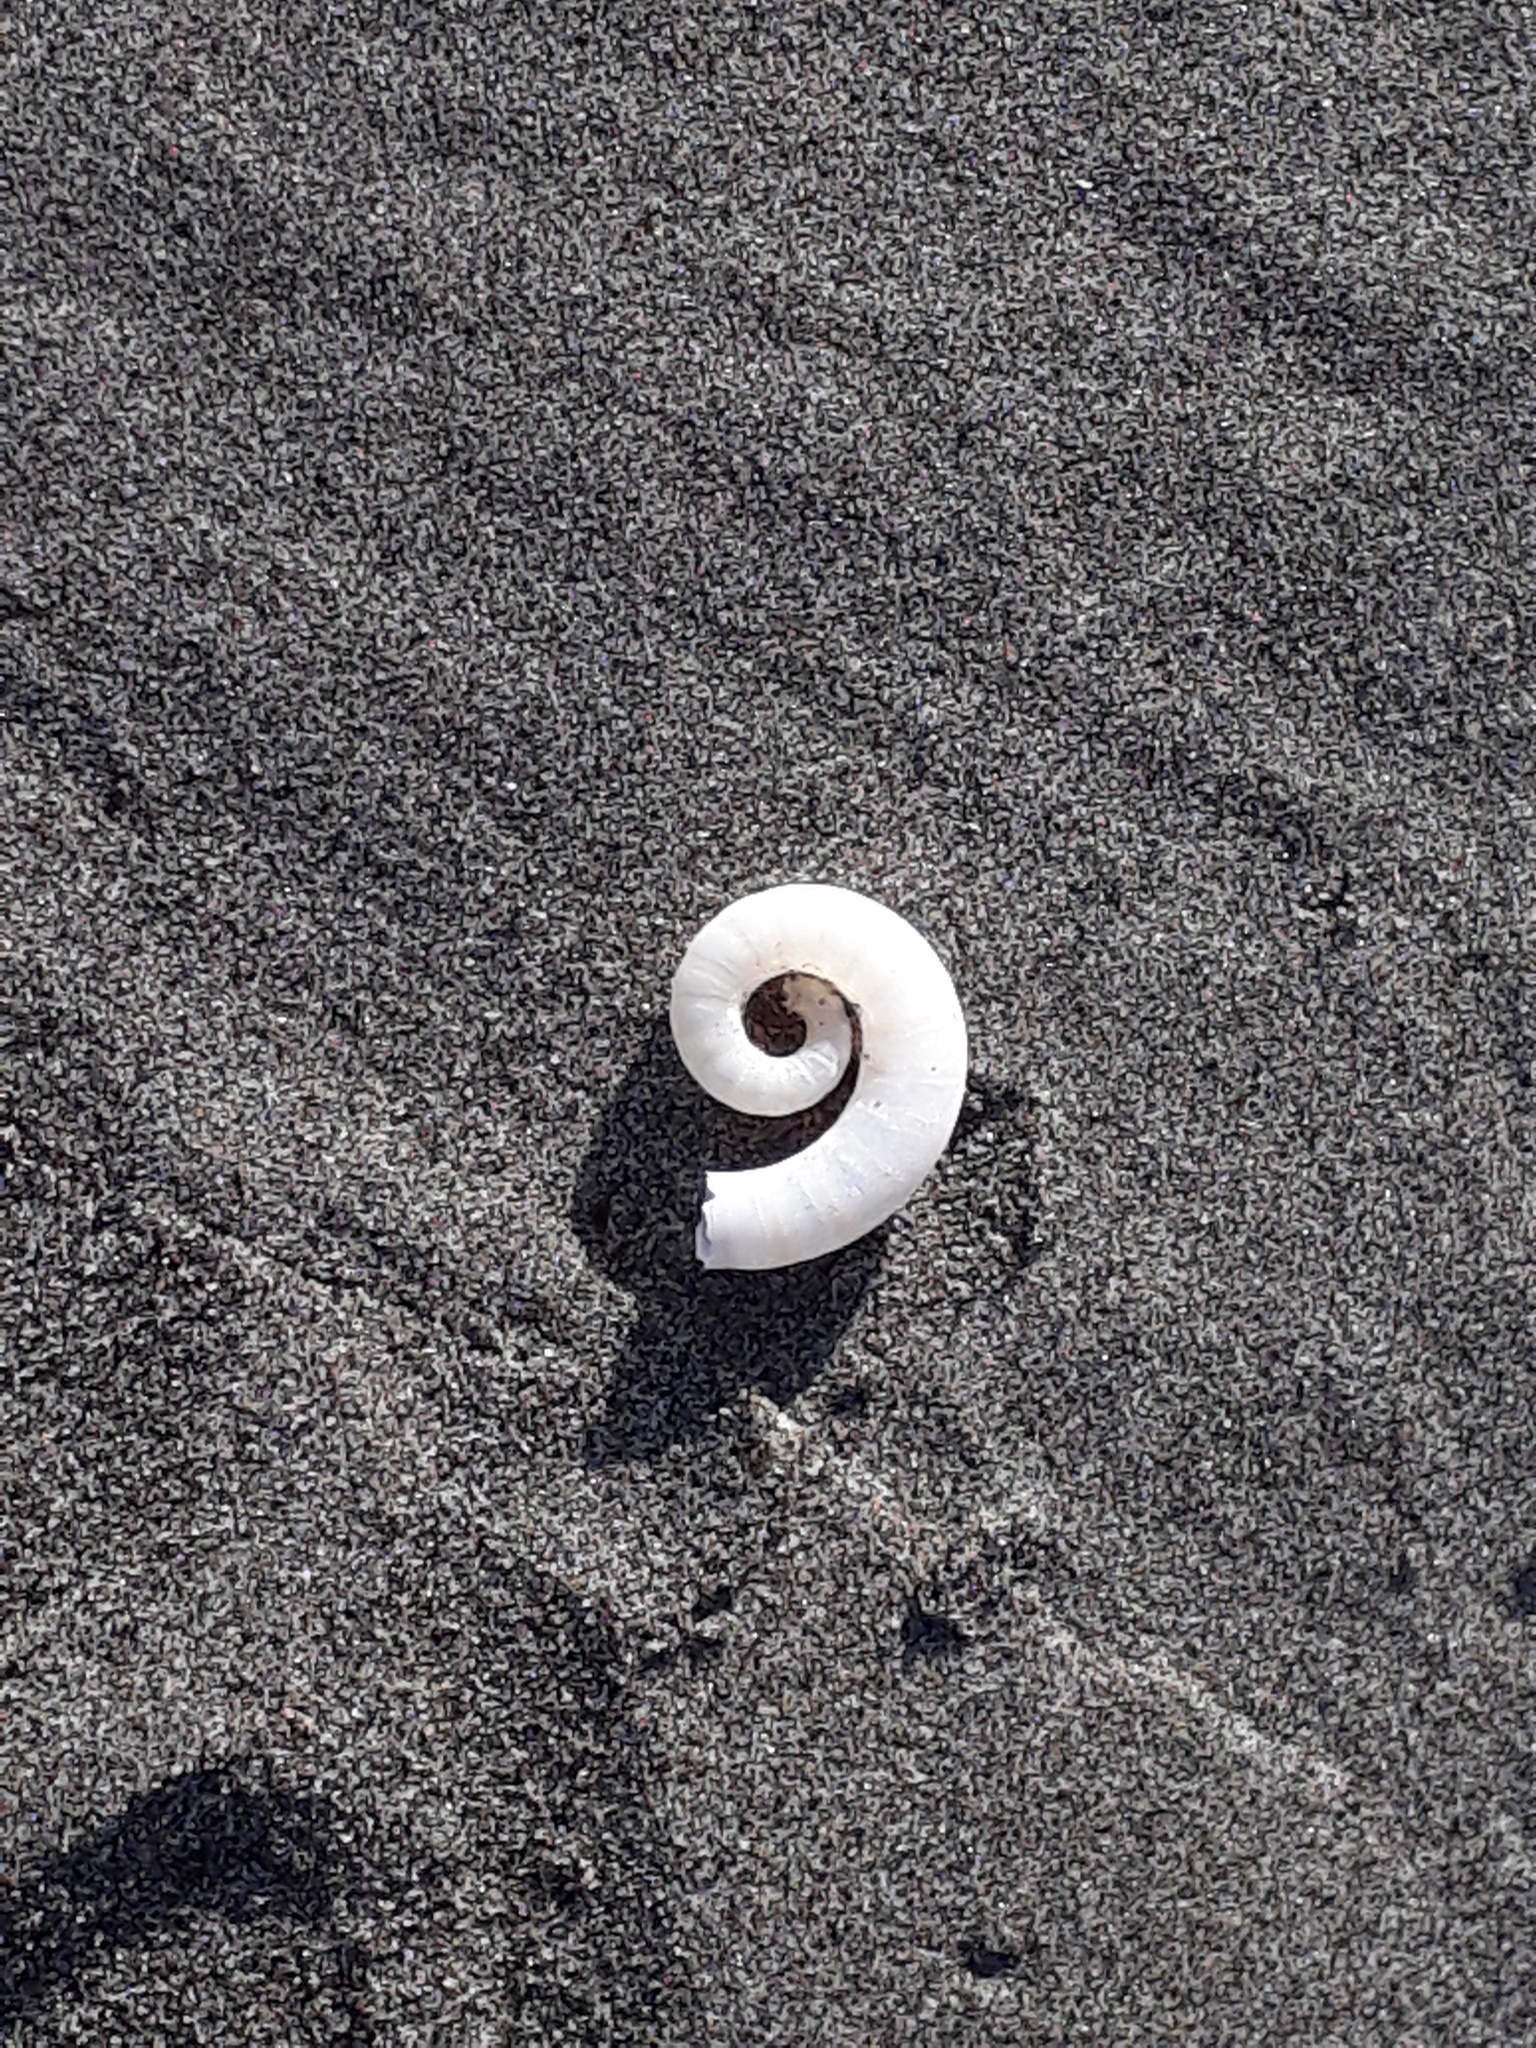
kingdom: Animalia
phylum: Mollusca
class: Cephalopoda
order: Spirulida
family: Spirulidae
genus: Spirula
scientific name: Spirula spirula
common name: Ram's horn squid
